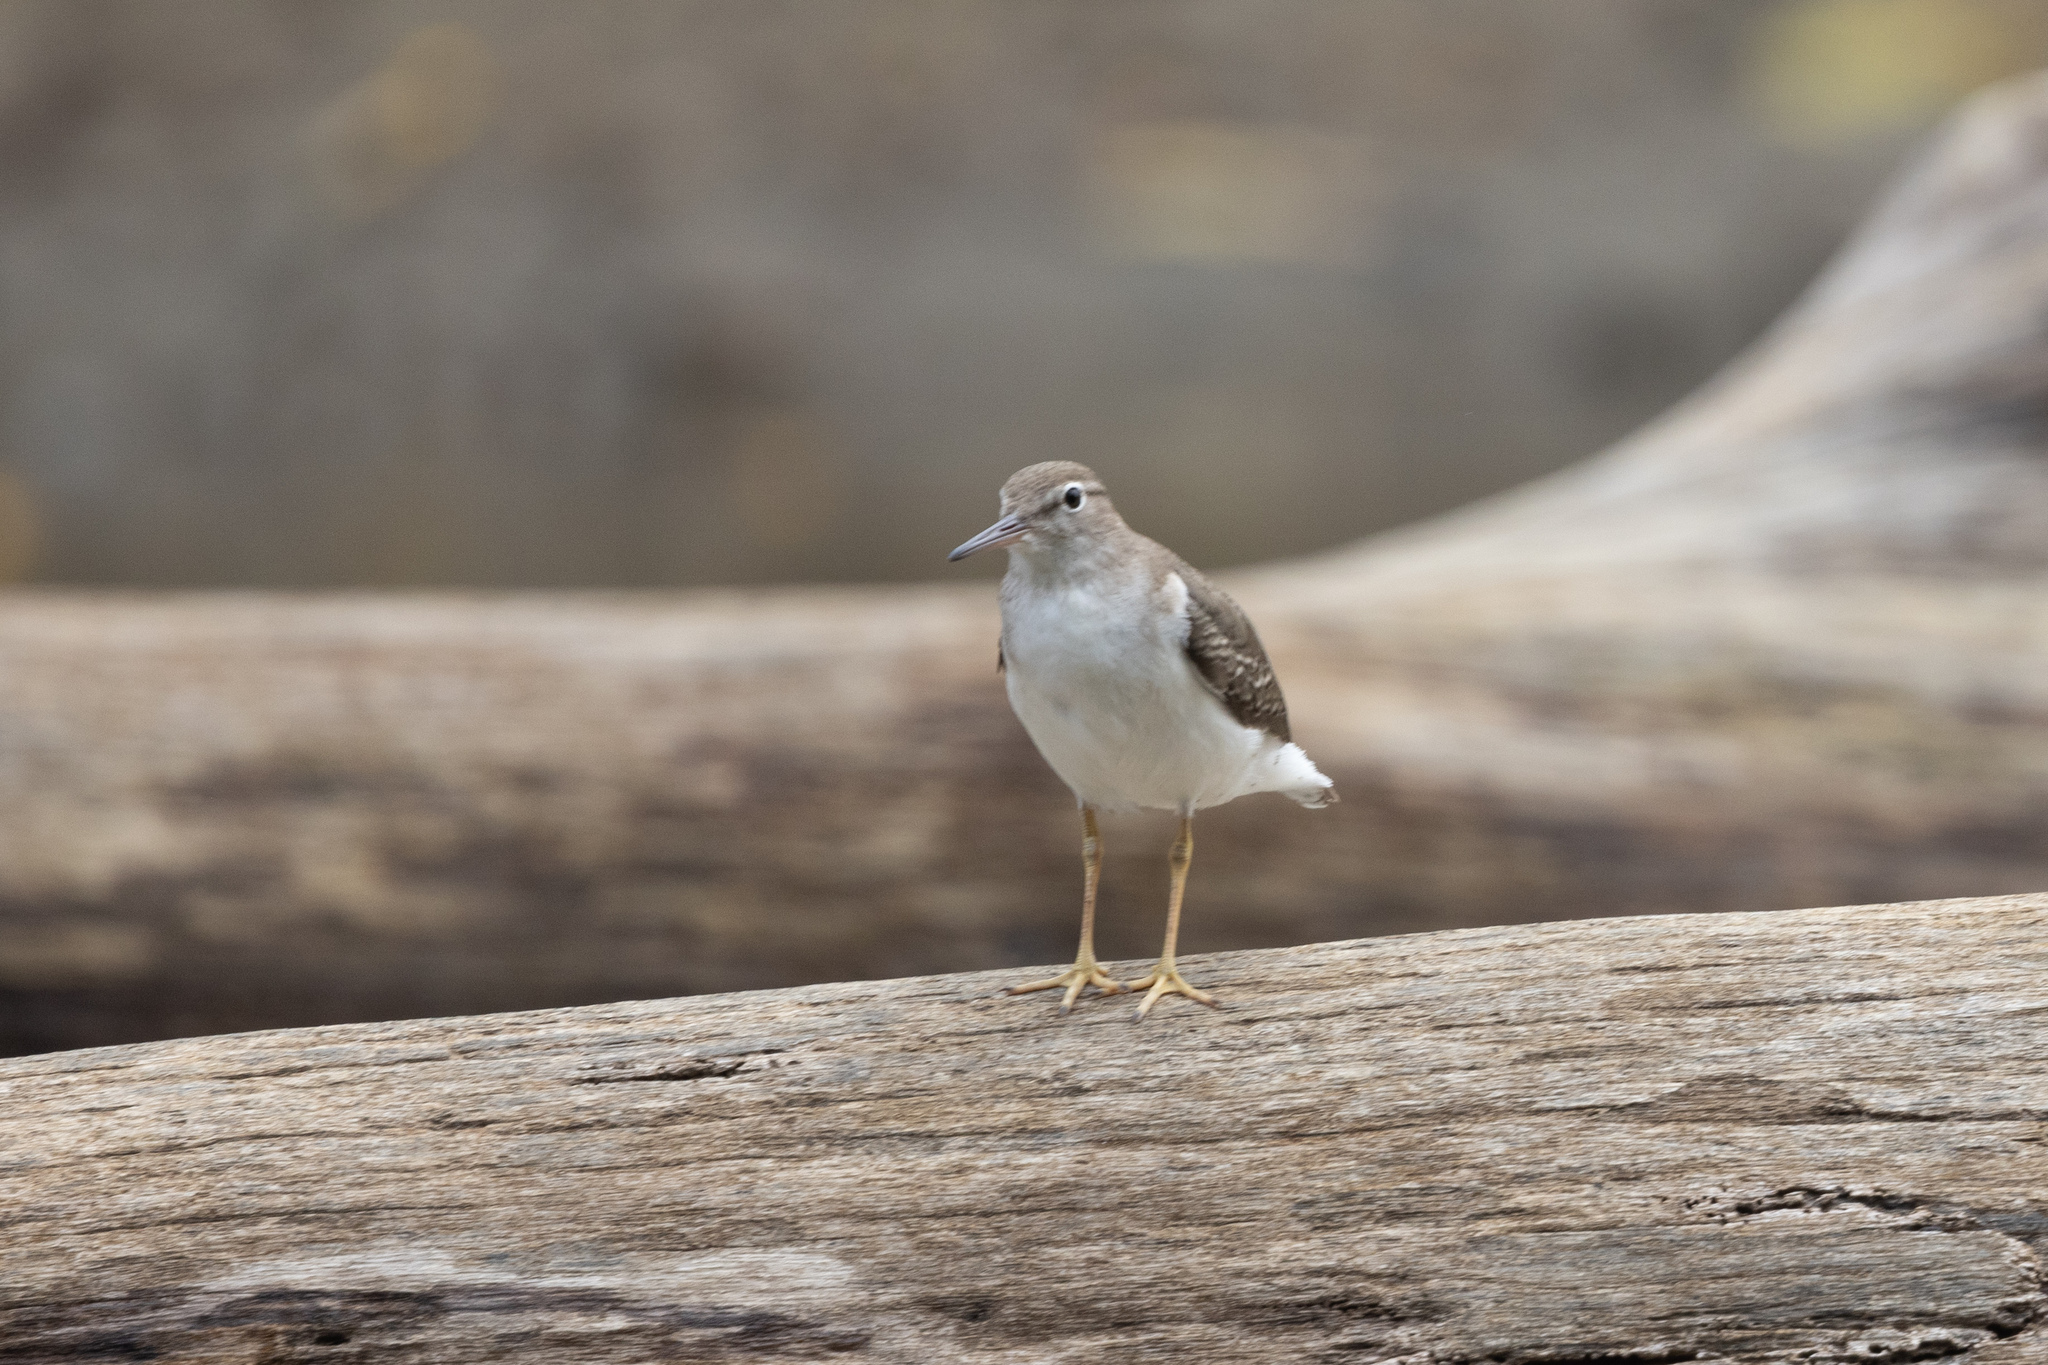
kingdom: Animalia
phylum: Chordata
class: Aves
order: Charadriiformes
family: Scolopacidae
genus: Actitis
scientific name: Actitis macularius
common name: Spotted sandpiper
